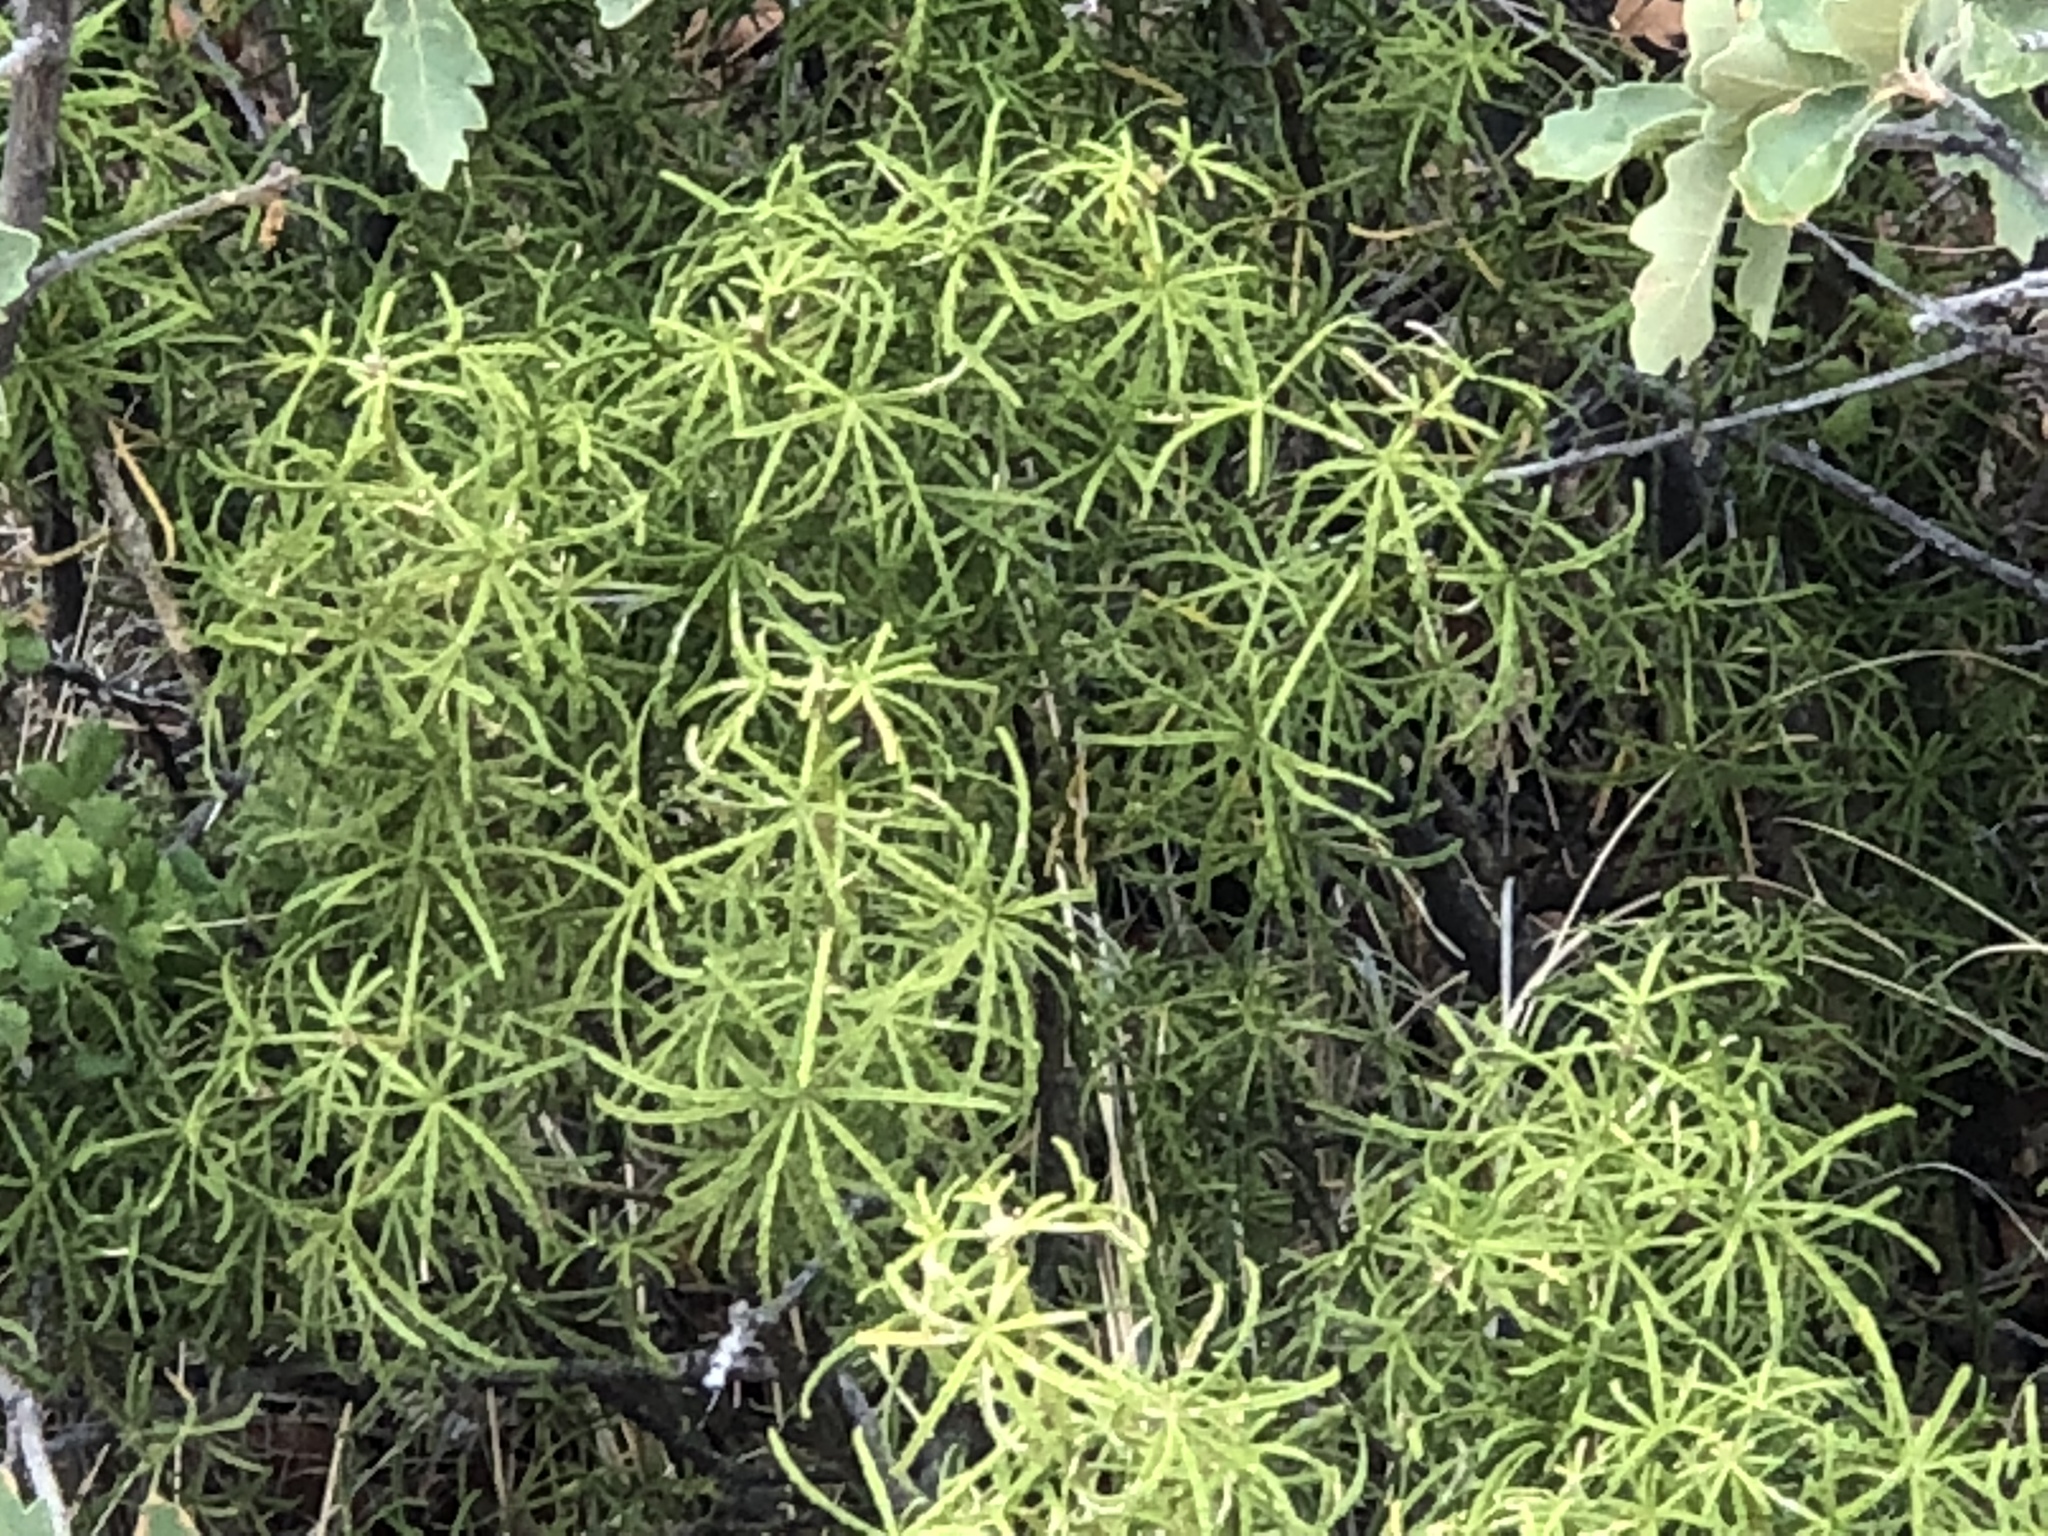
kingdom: Plantae
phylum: Tracheophyta
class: Magnoliopsida
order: Sapindales
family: Rutaceae
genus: Choisya
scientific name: Choisya dumosa
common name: Mexican-orange
